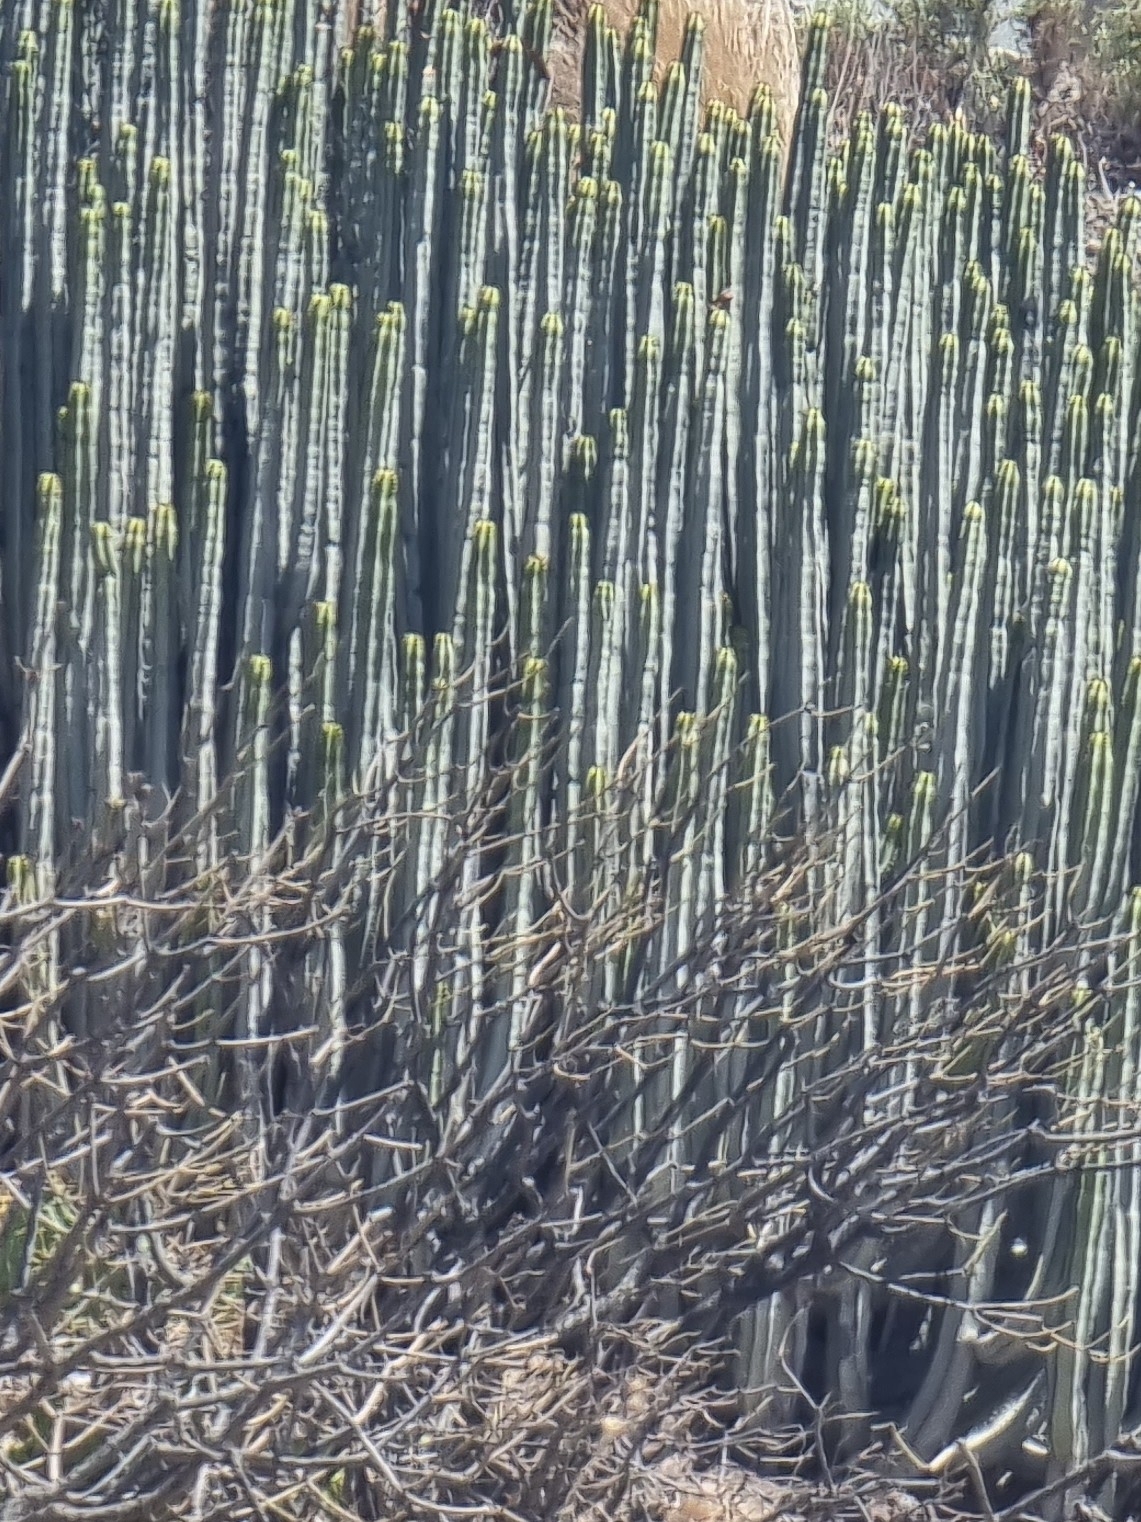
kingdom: Plantae
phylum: Tracheophyta
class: Magnoliopsida
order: Malpighiales
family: Euphorbiaceae
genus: Euphorbia
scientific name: Euphorbia canariensis
